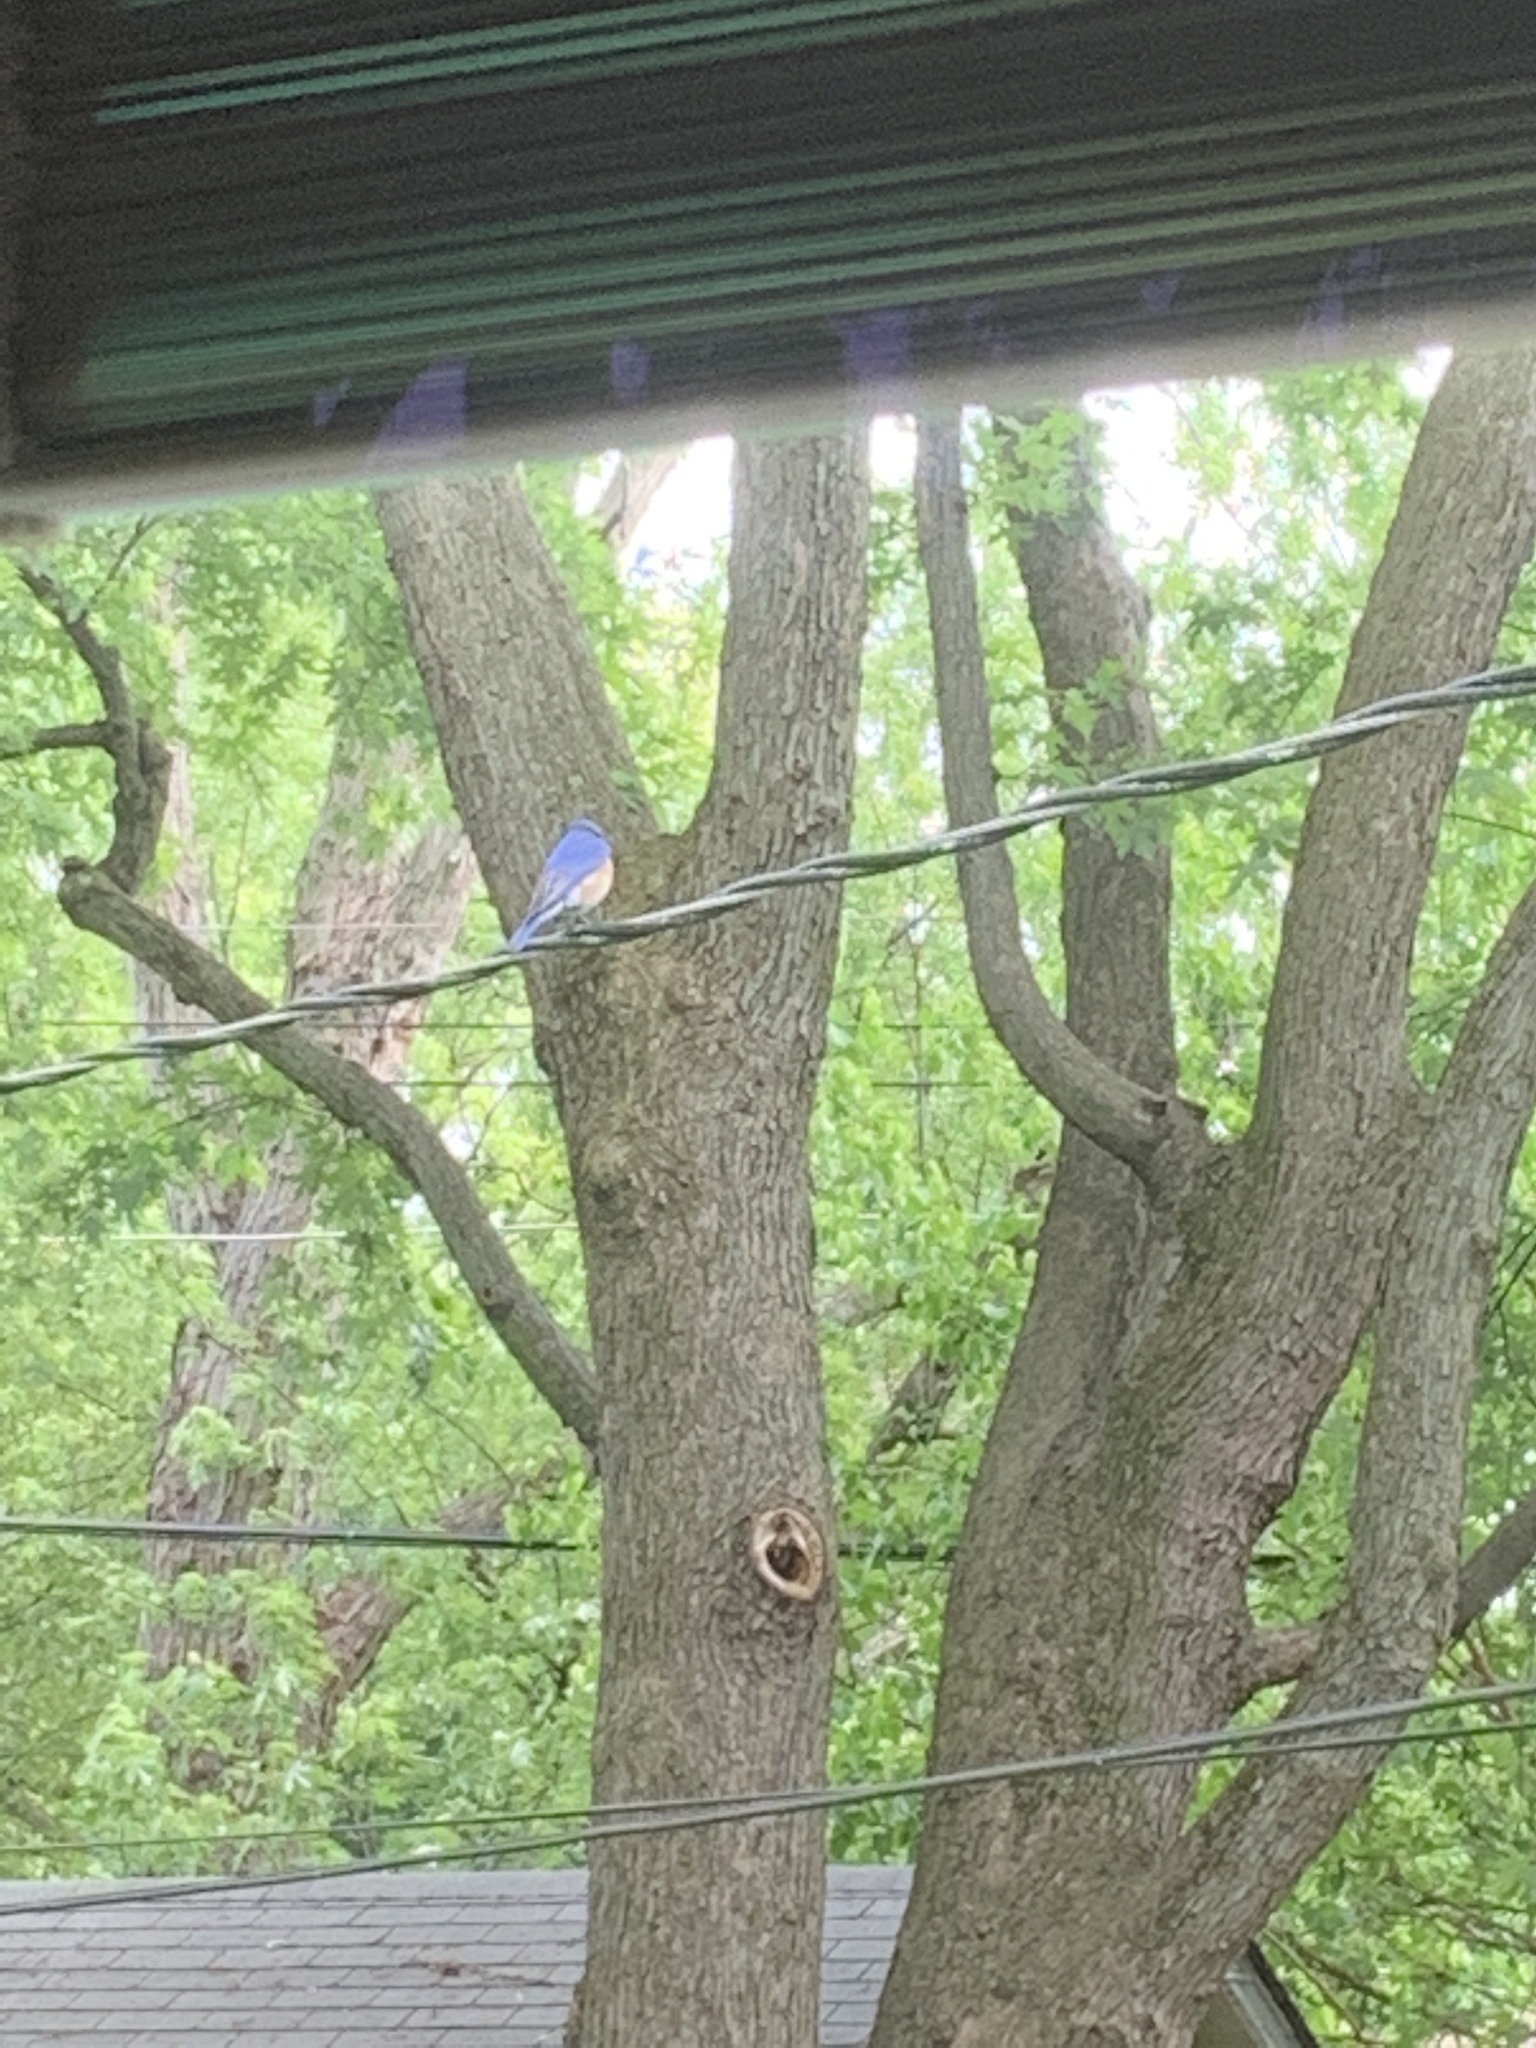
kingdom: Animalia
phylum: Chordata
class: Aves
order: Passeriformes
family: Turdidae
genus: Sialia
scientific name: Sialia sialis
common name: Eastern bluebird
